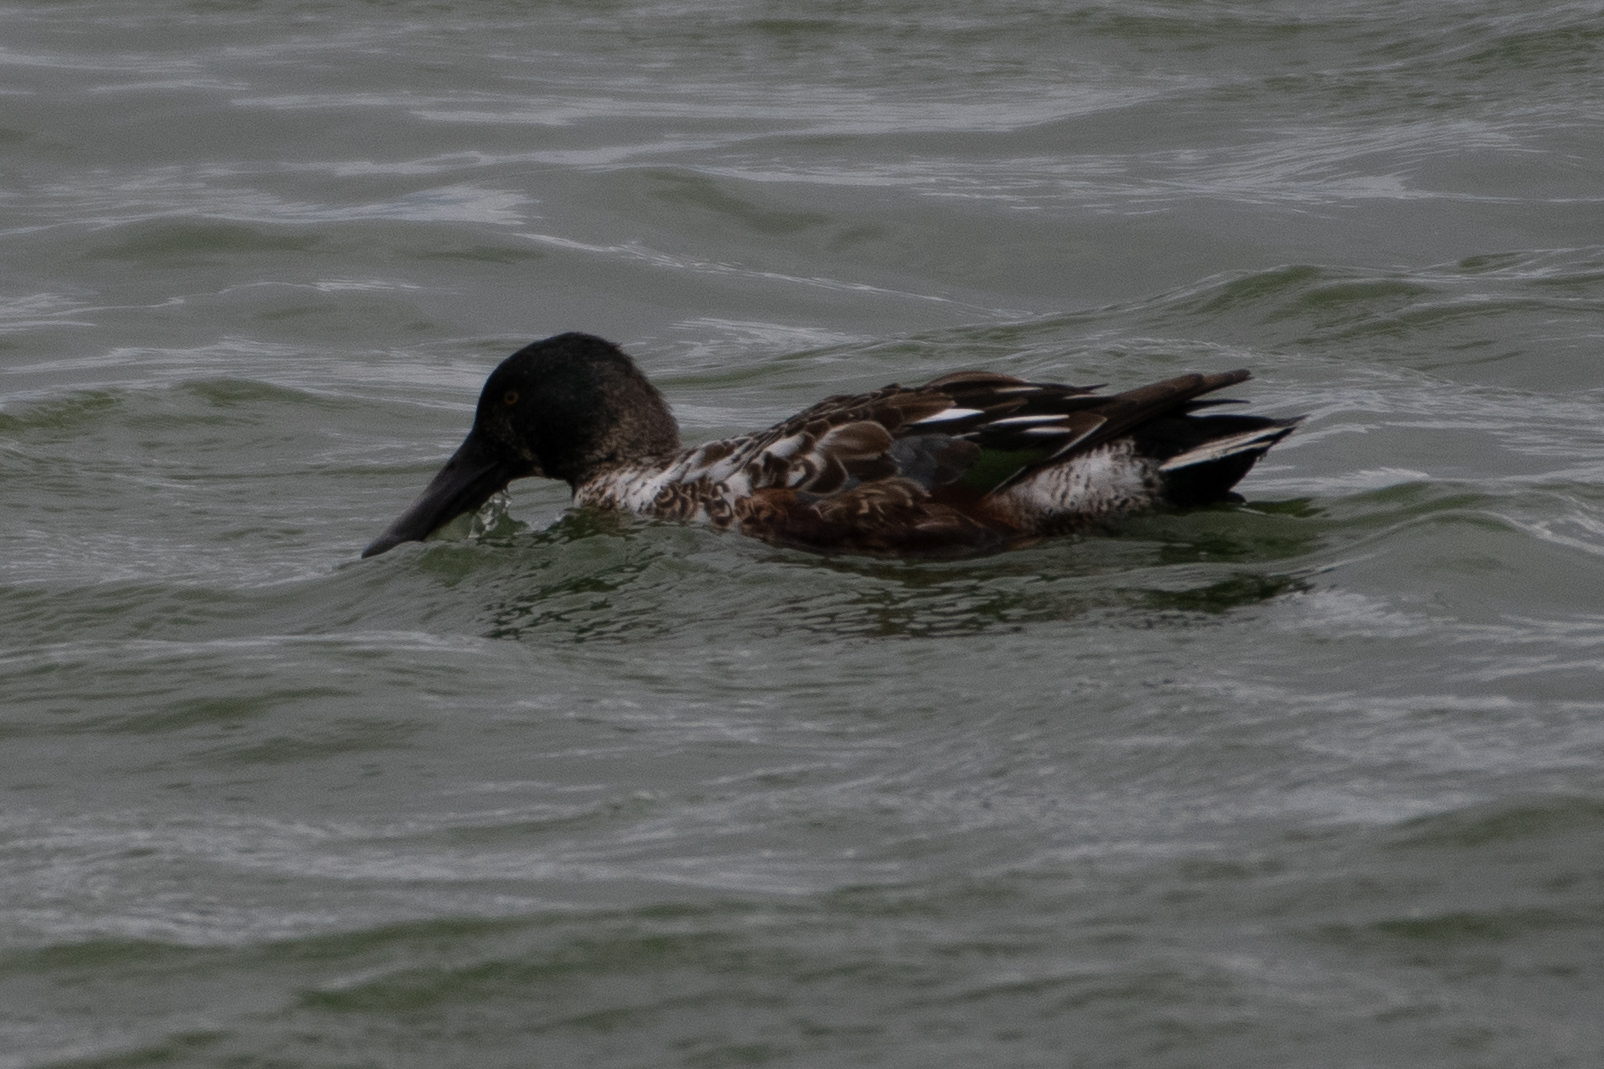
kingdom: Animalia
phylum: Chordata
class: Aves
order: Anseriformes
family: Anatidae
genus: Spatula
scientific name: Spatula clypeata
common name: Northern shoveler
